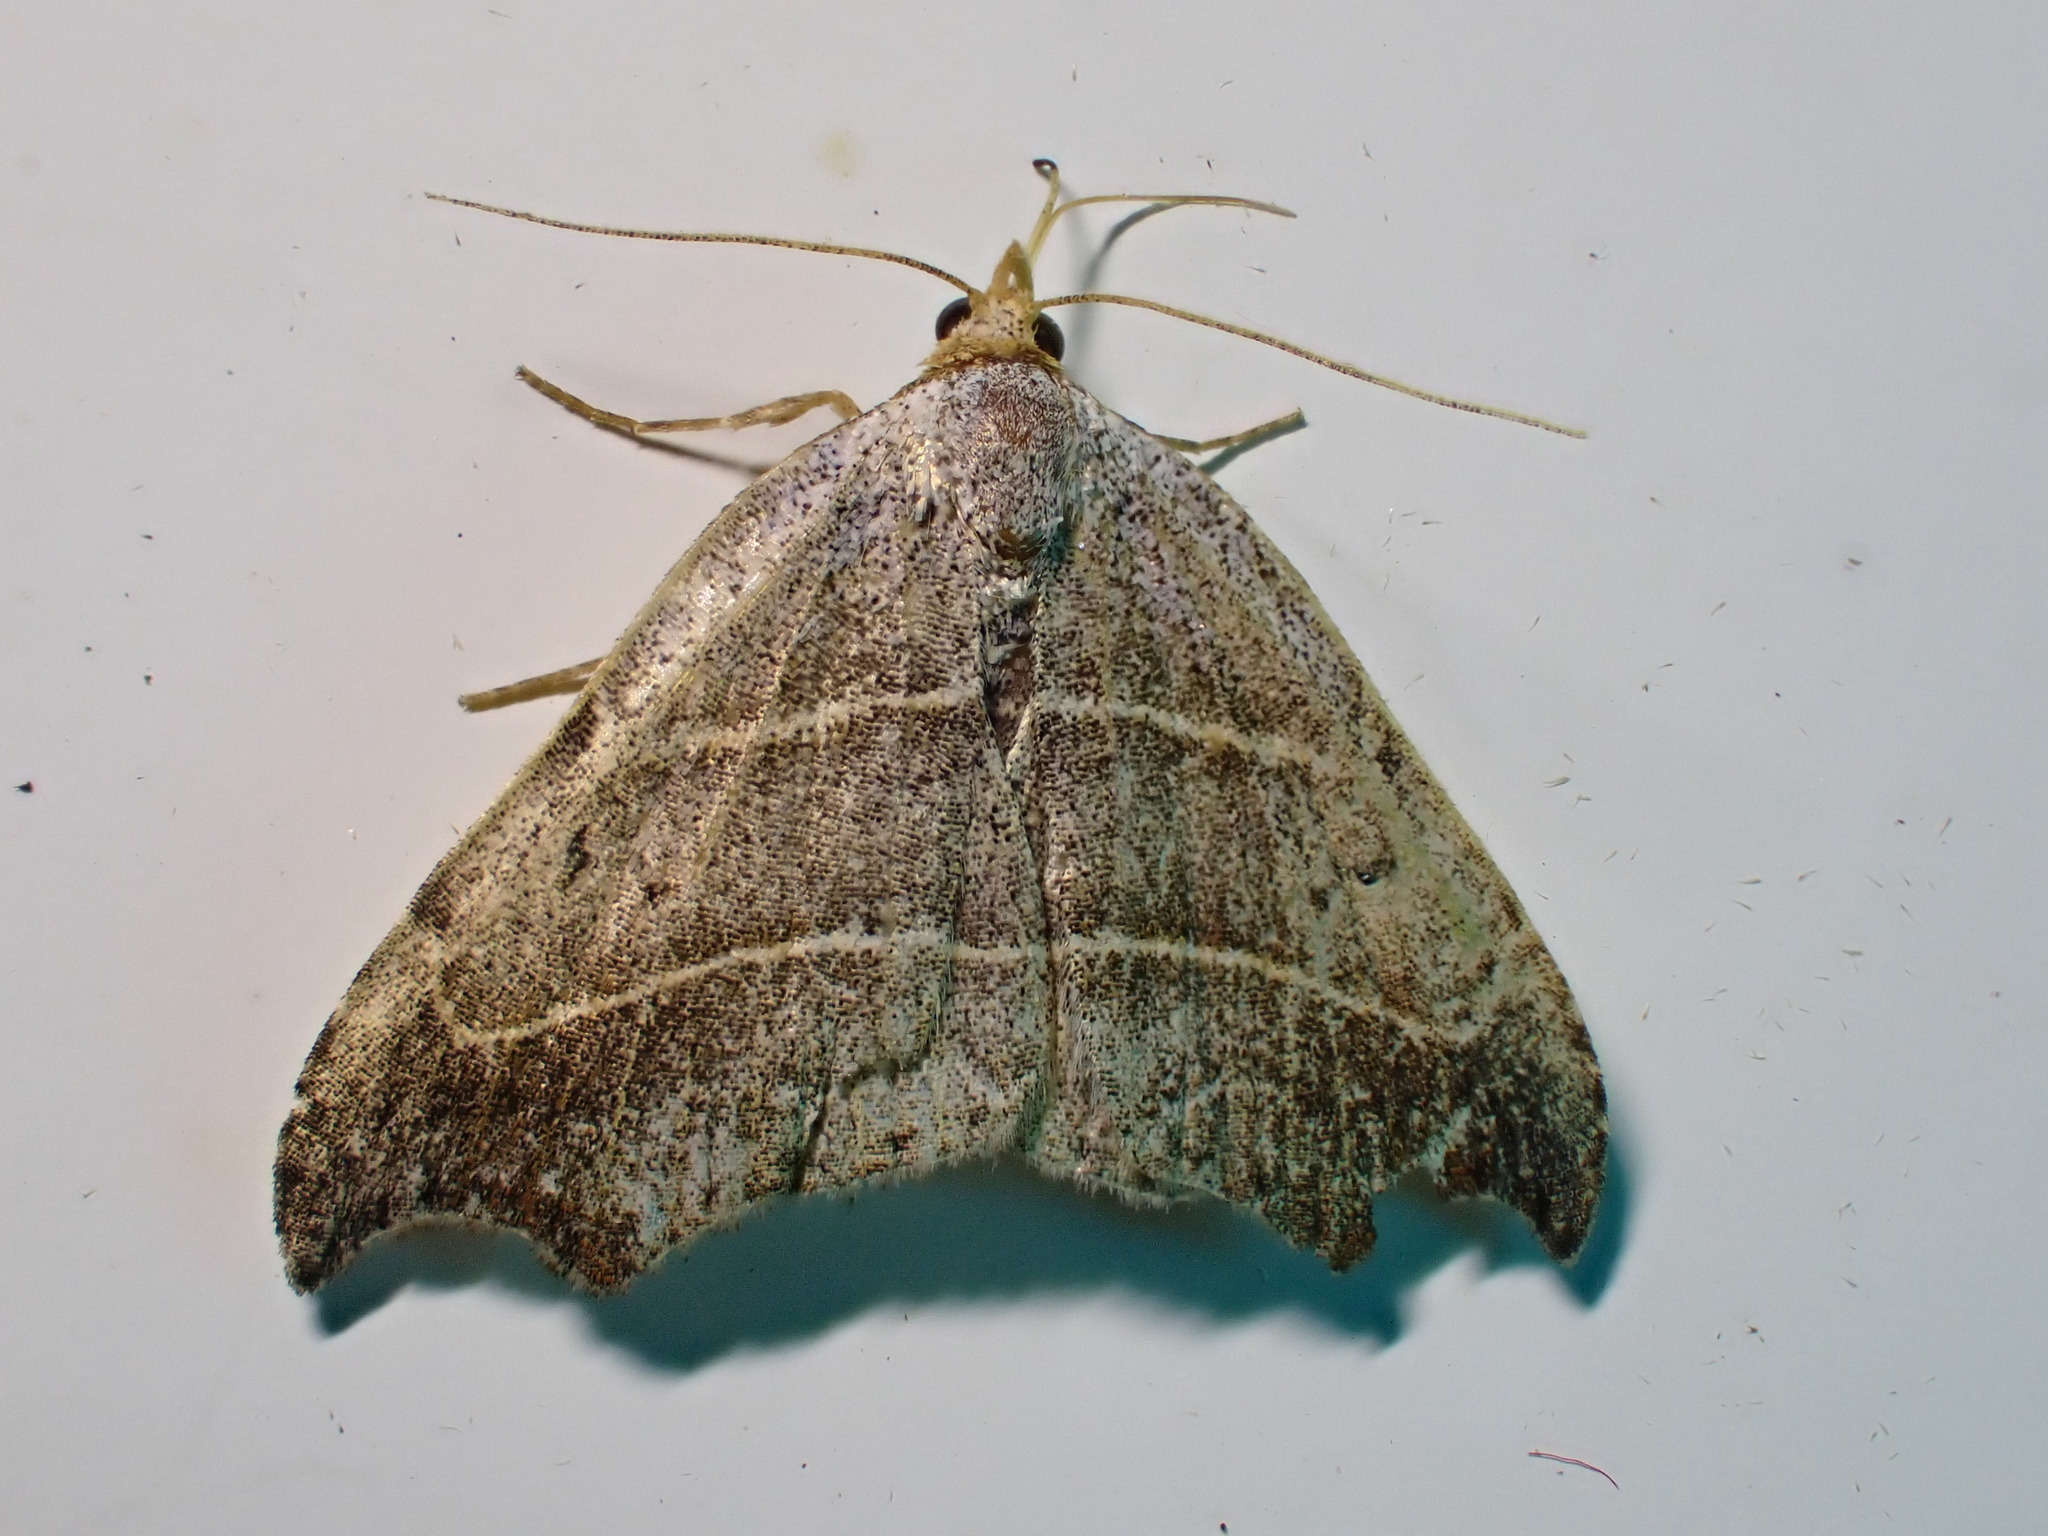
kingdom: Animalia
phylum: Arthropoda
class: Insecta
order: Lepidoptera
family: Erebidae
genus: Laspeyria
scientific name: Laspeyria flexula
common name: Beautiful hook-tip
